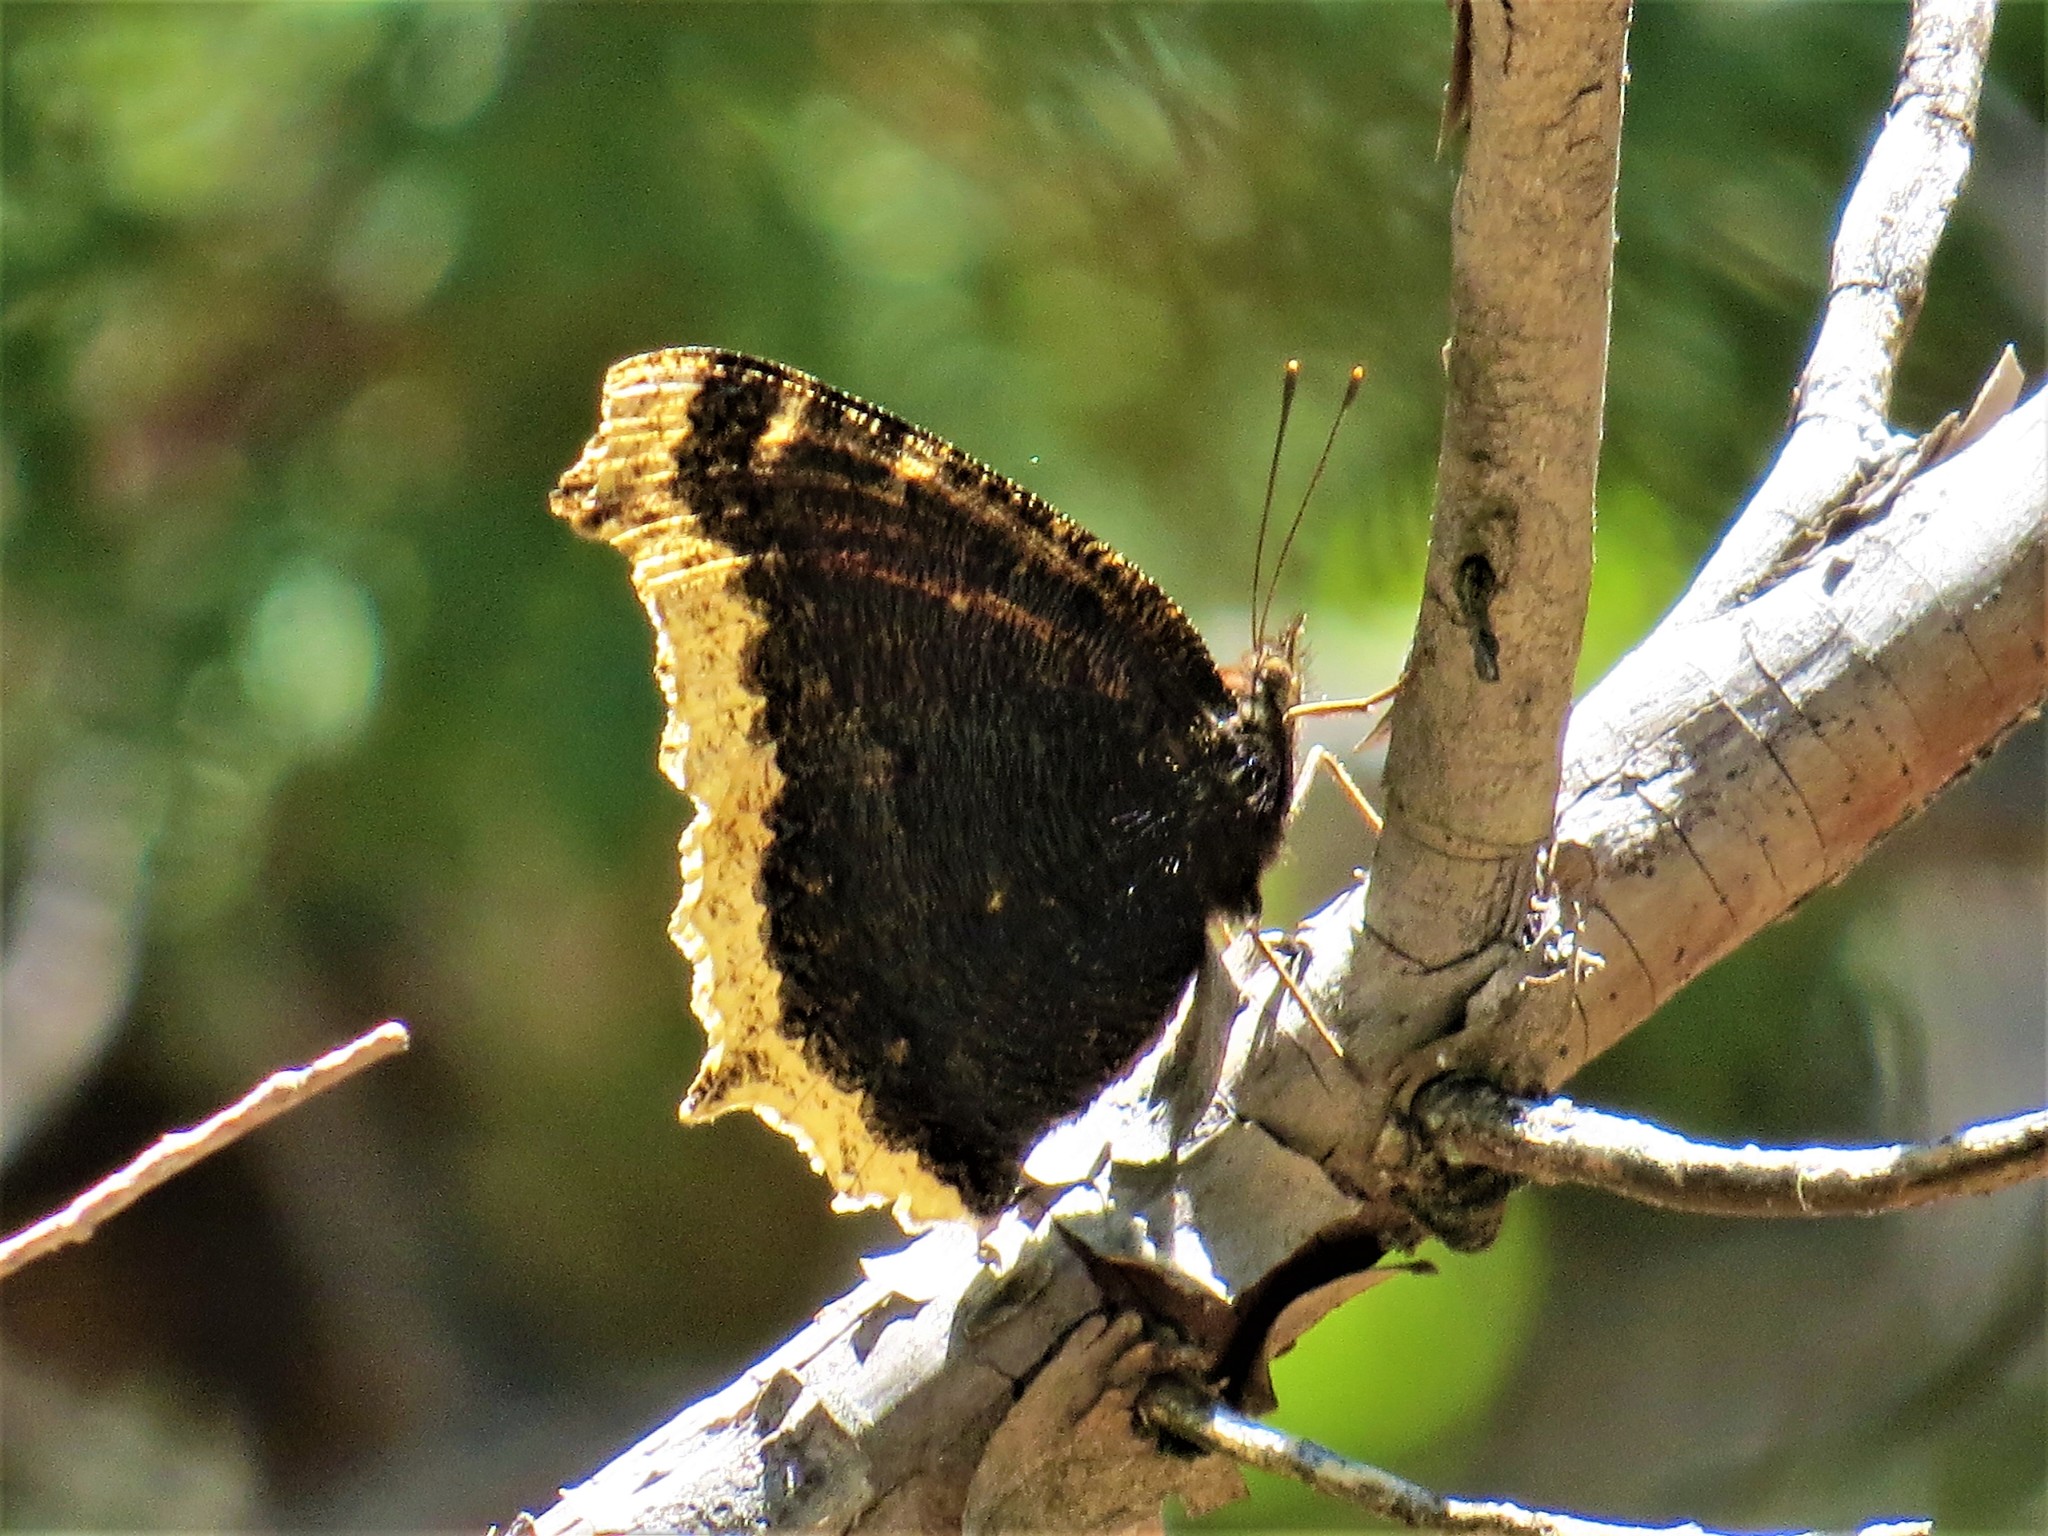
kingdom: Animalia
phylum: Arthropoda
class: Insecta
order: Lepidoptera
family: Nymphalidae
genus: Nymphalis
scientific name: Nymphalis antiopa
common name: Camberwell beauty
